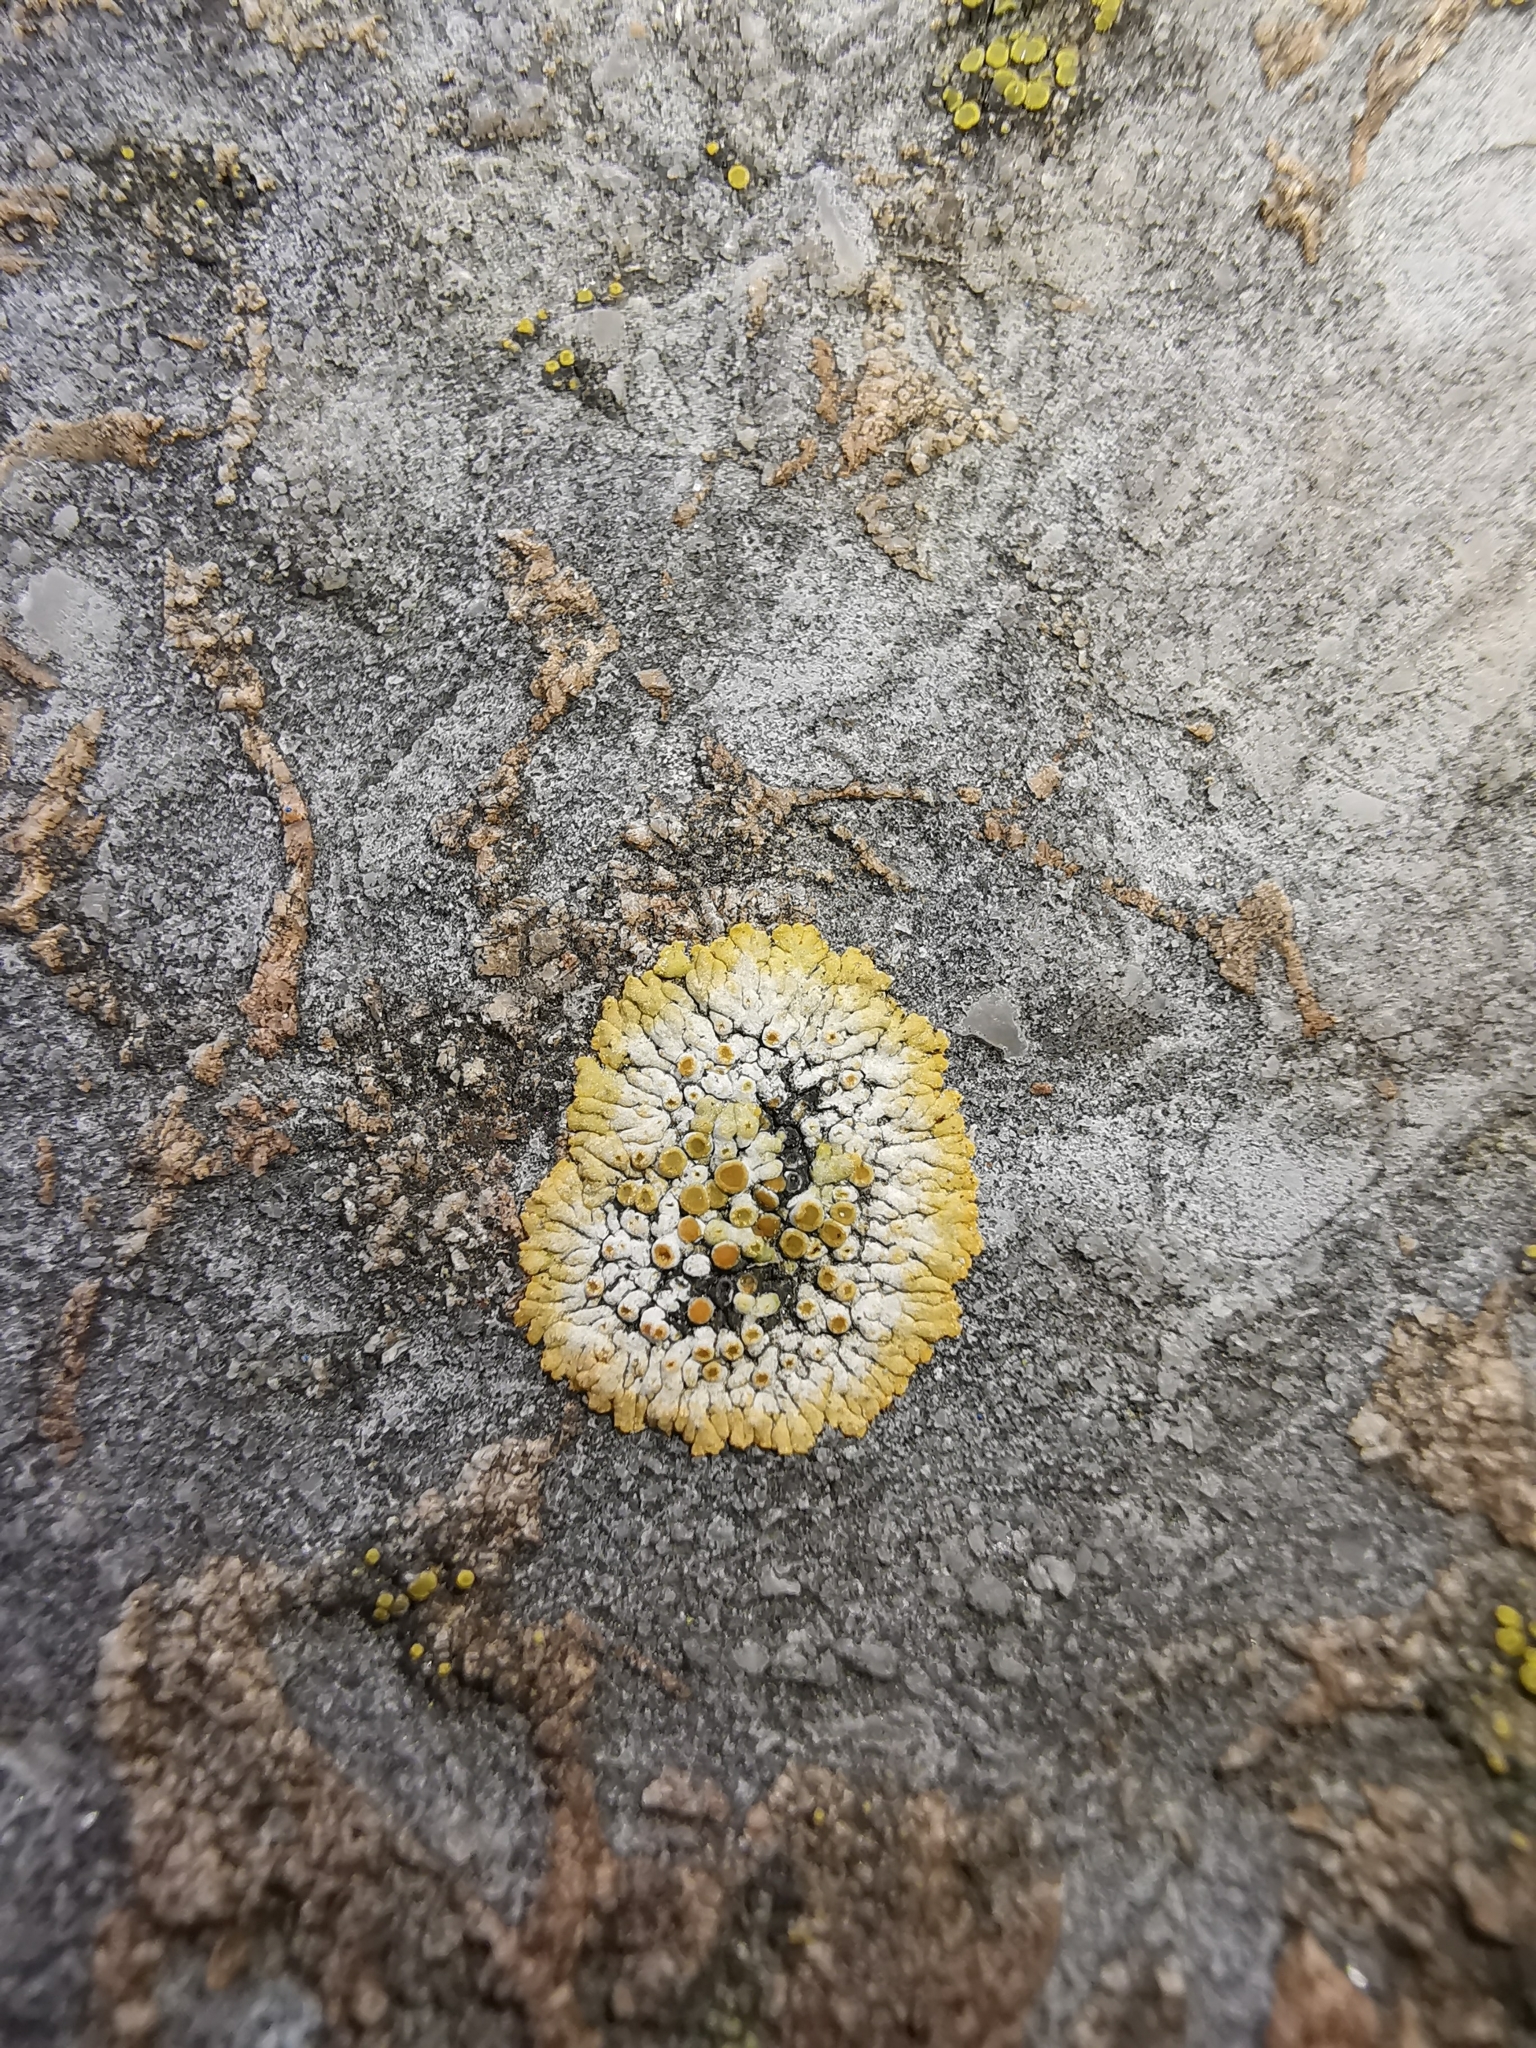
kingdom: Fungi
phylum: Ascomycota
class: Lecanoromycetes
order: Teloschistales
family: Teloschistaceae
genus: Calogaya
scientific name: Calogaya pusilla
